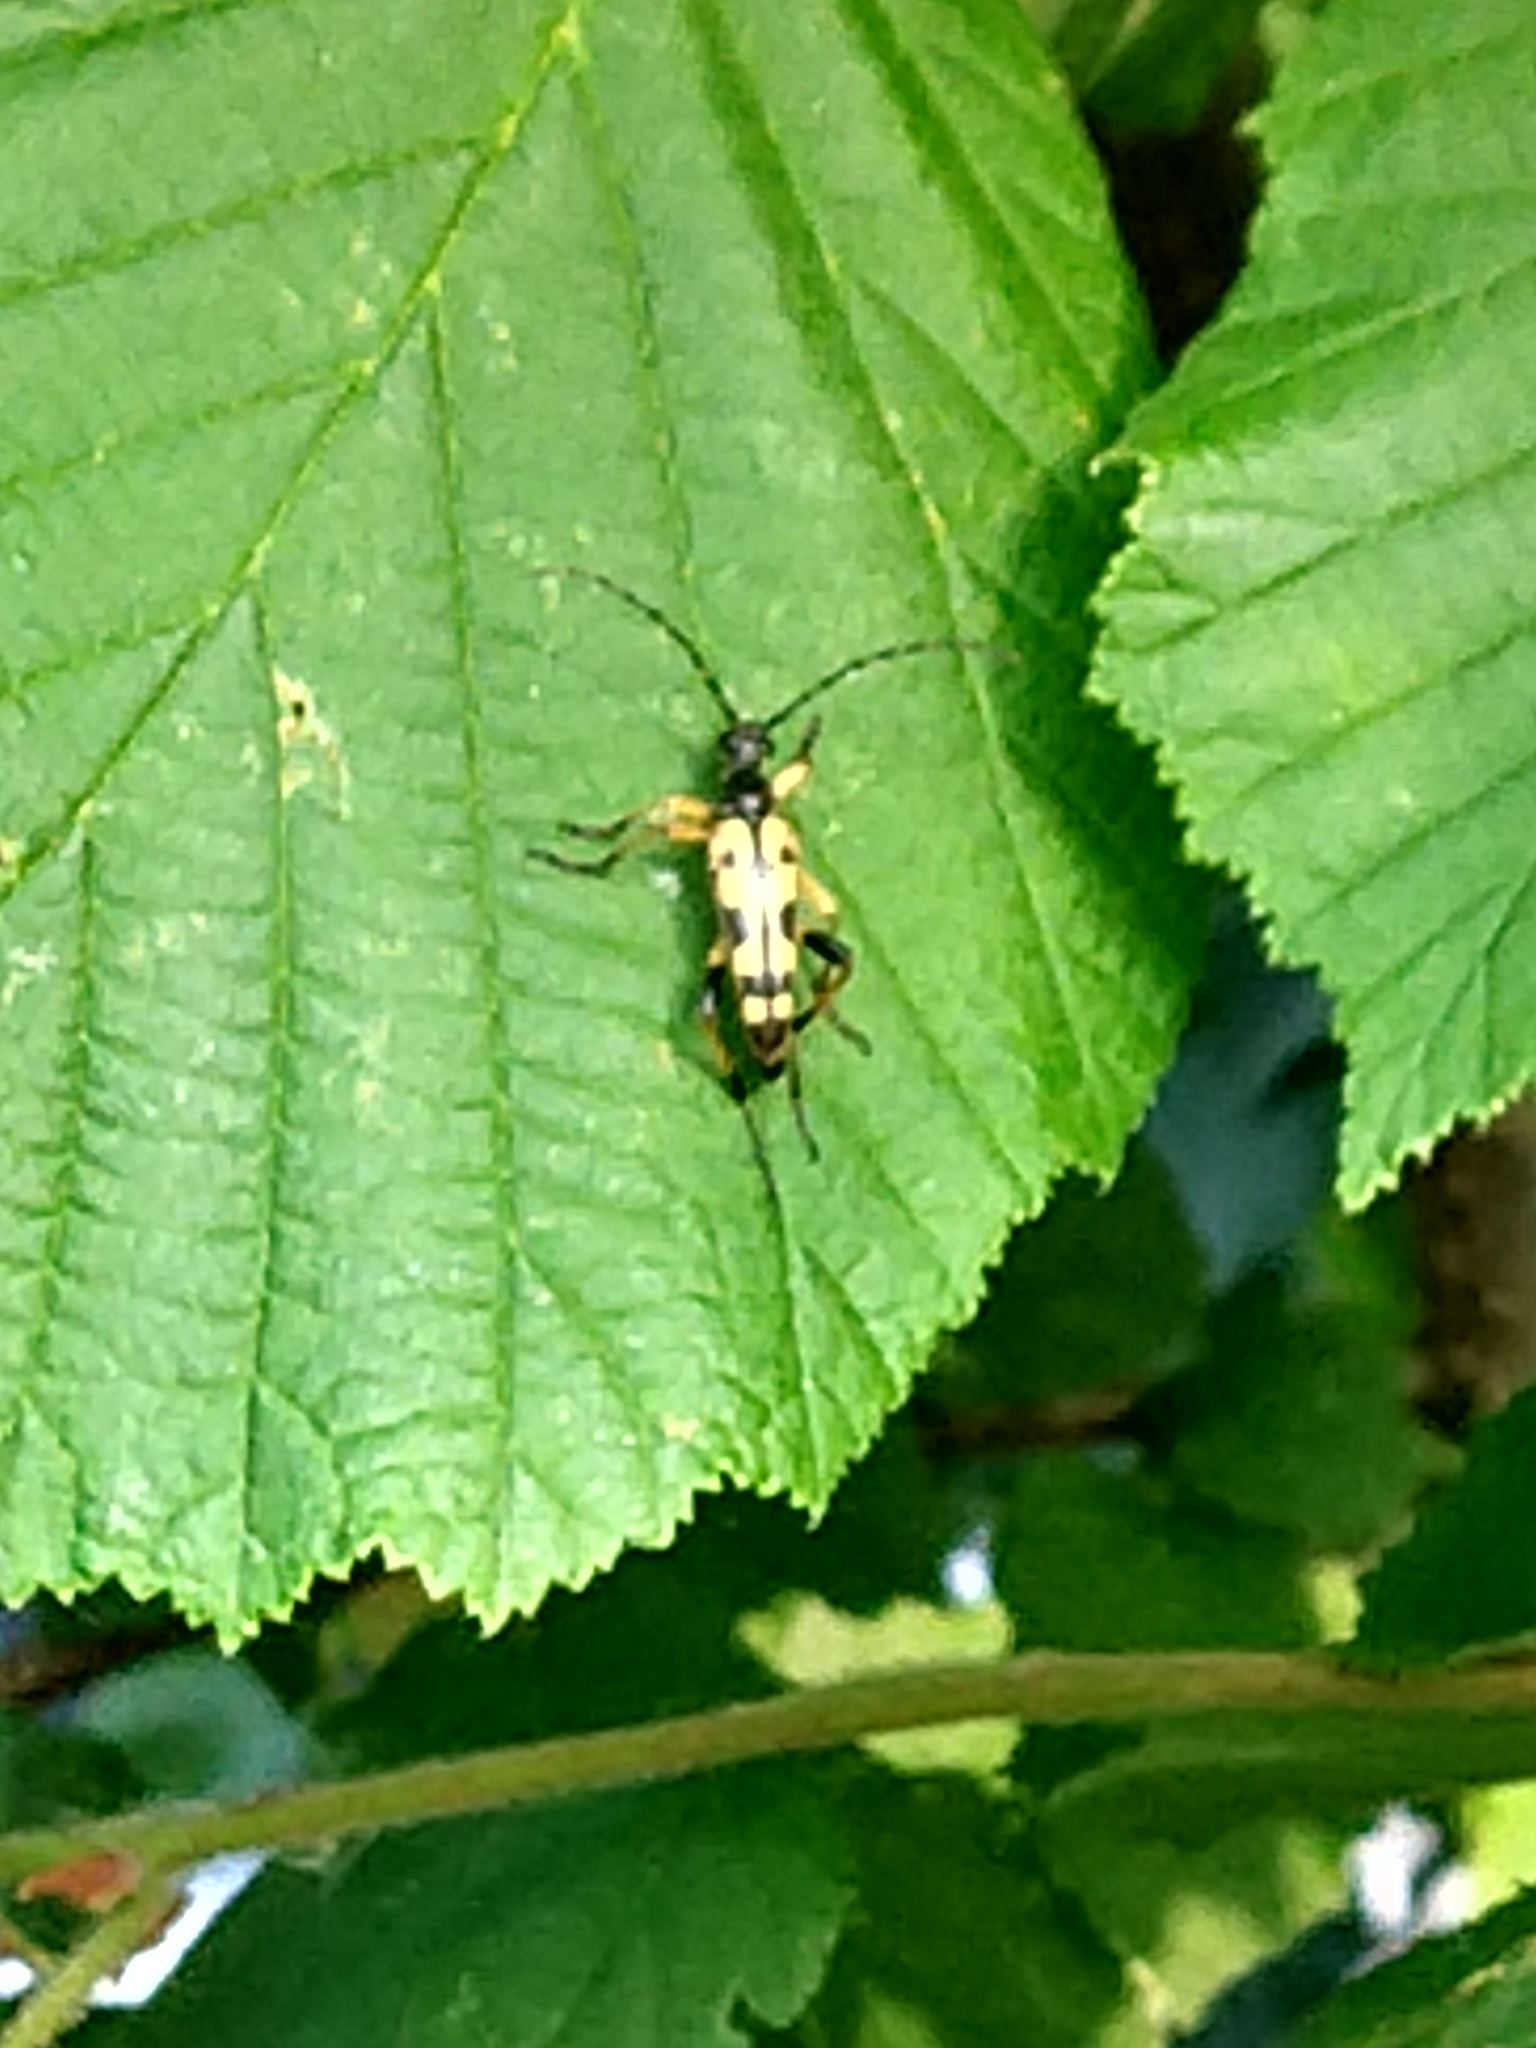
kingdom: Animalia
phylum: Arthropoda
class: Insecta
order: Coleoptera
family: Cerambycidae
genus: Rutpela
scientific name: Rutpela maculata
